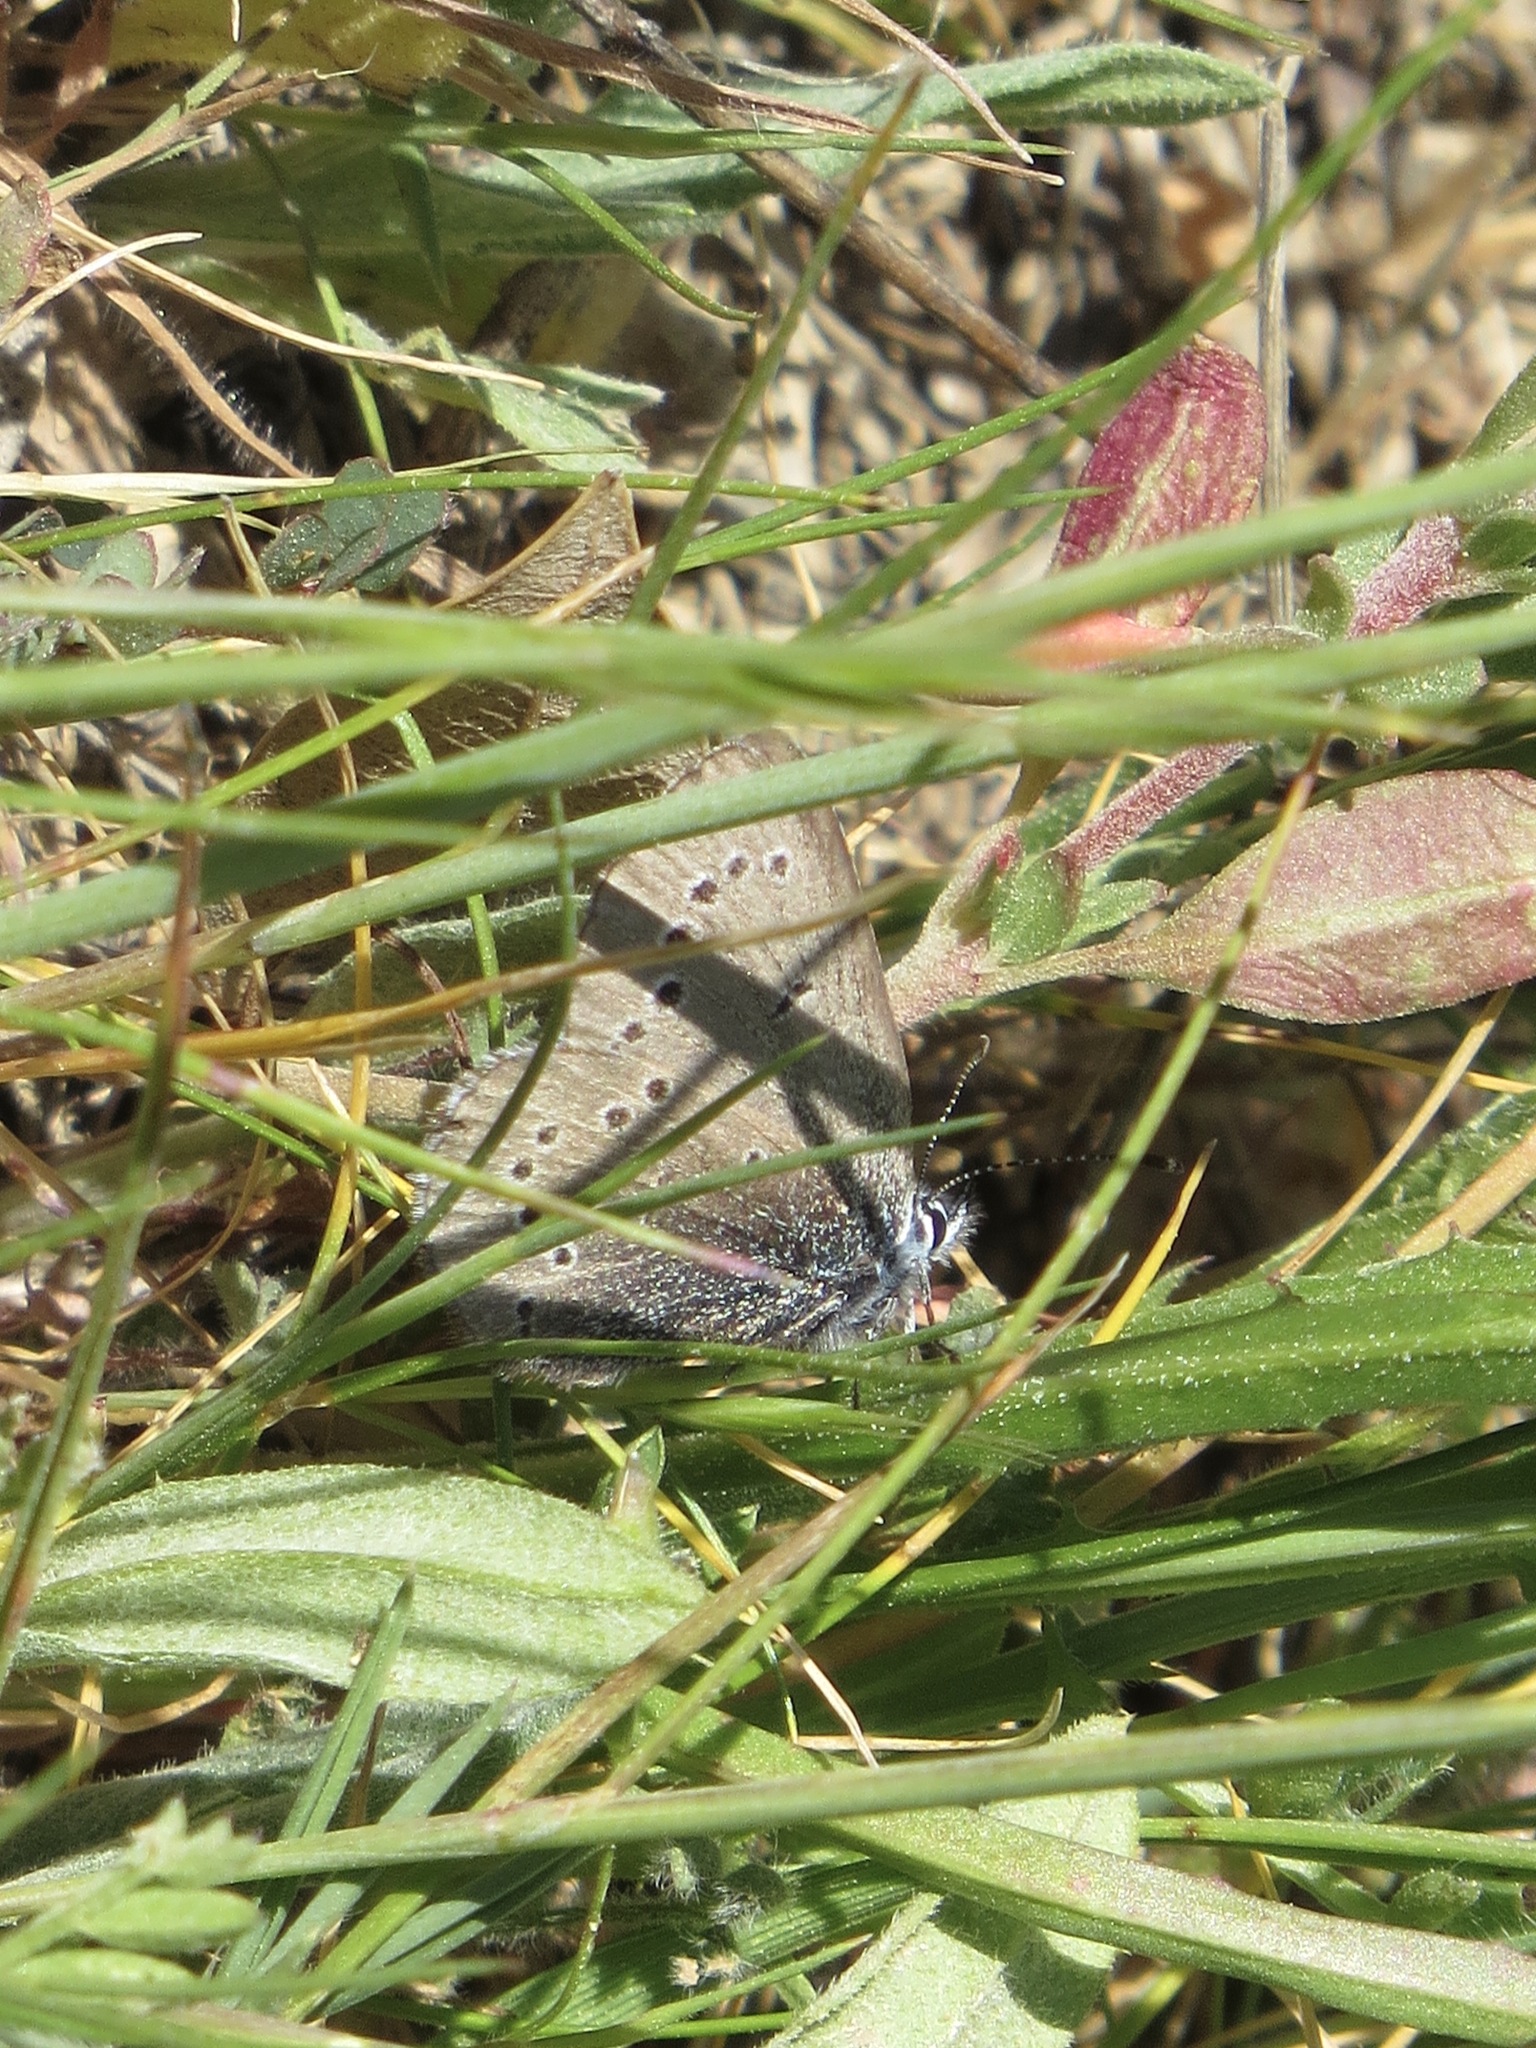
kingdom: Animalia
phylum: Arthropoda
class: Insecta
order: Lepidoptera
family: Lycaenidae
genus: Glaucopsyche
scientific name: Glaucopsyche lygdamus
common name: Silvery blue
